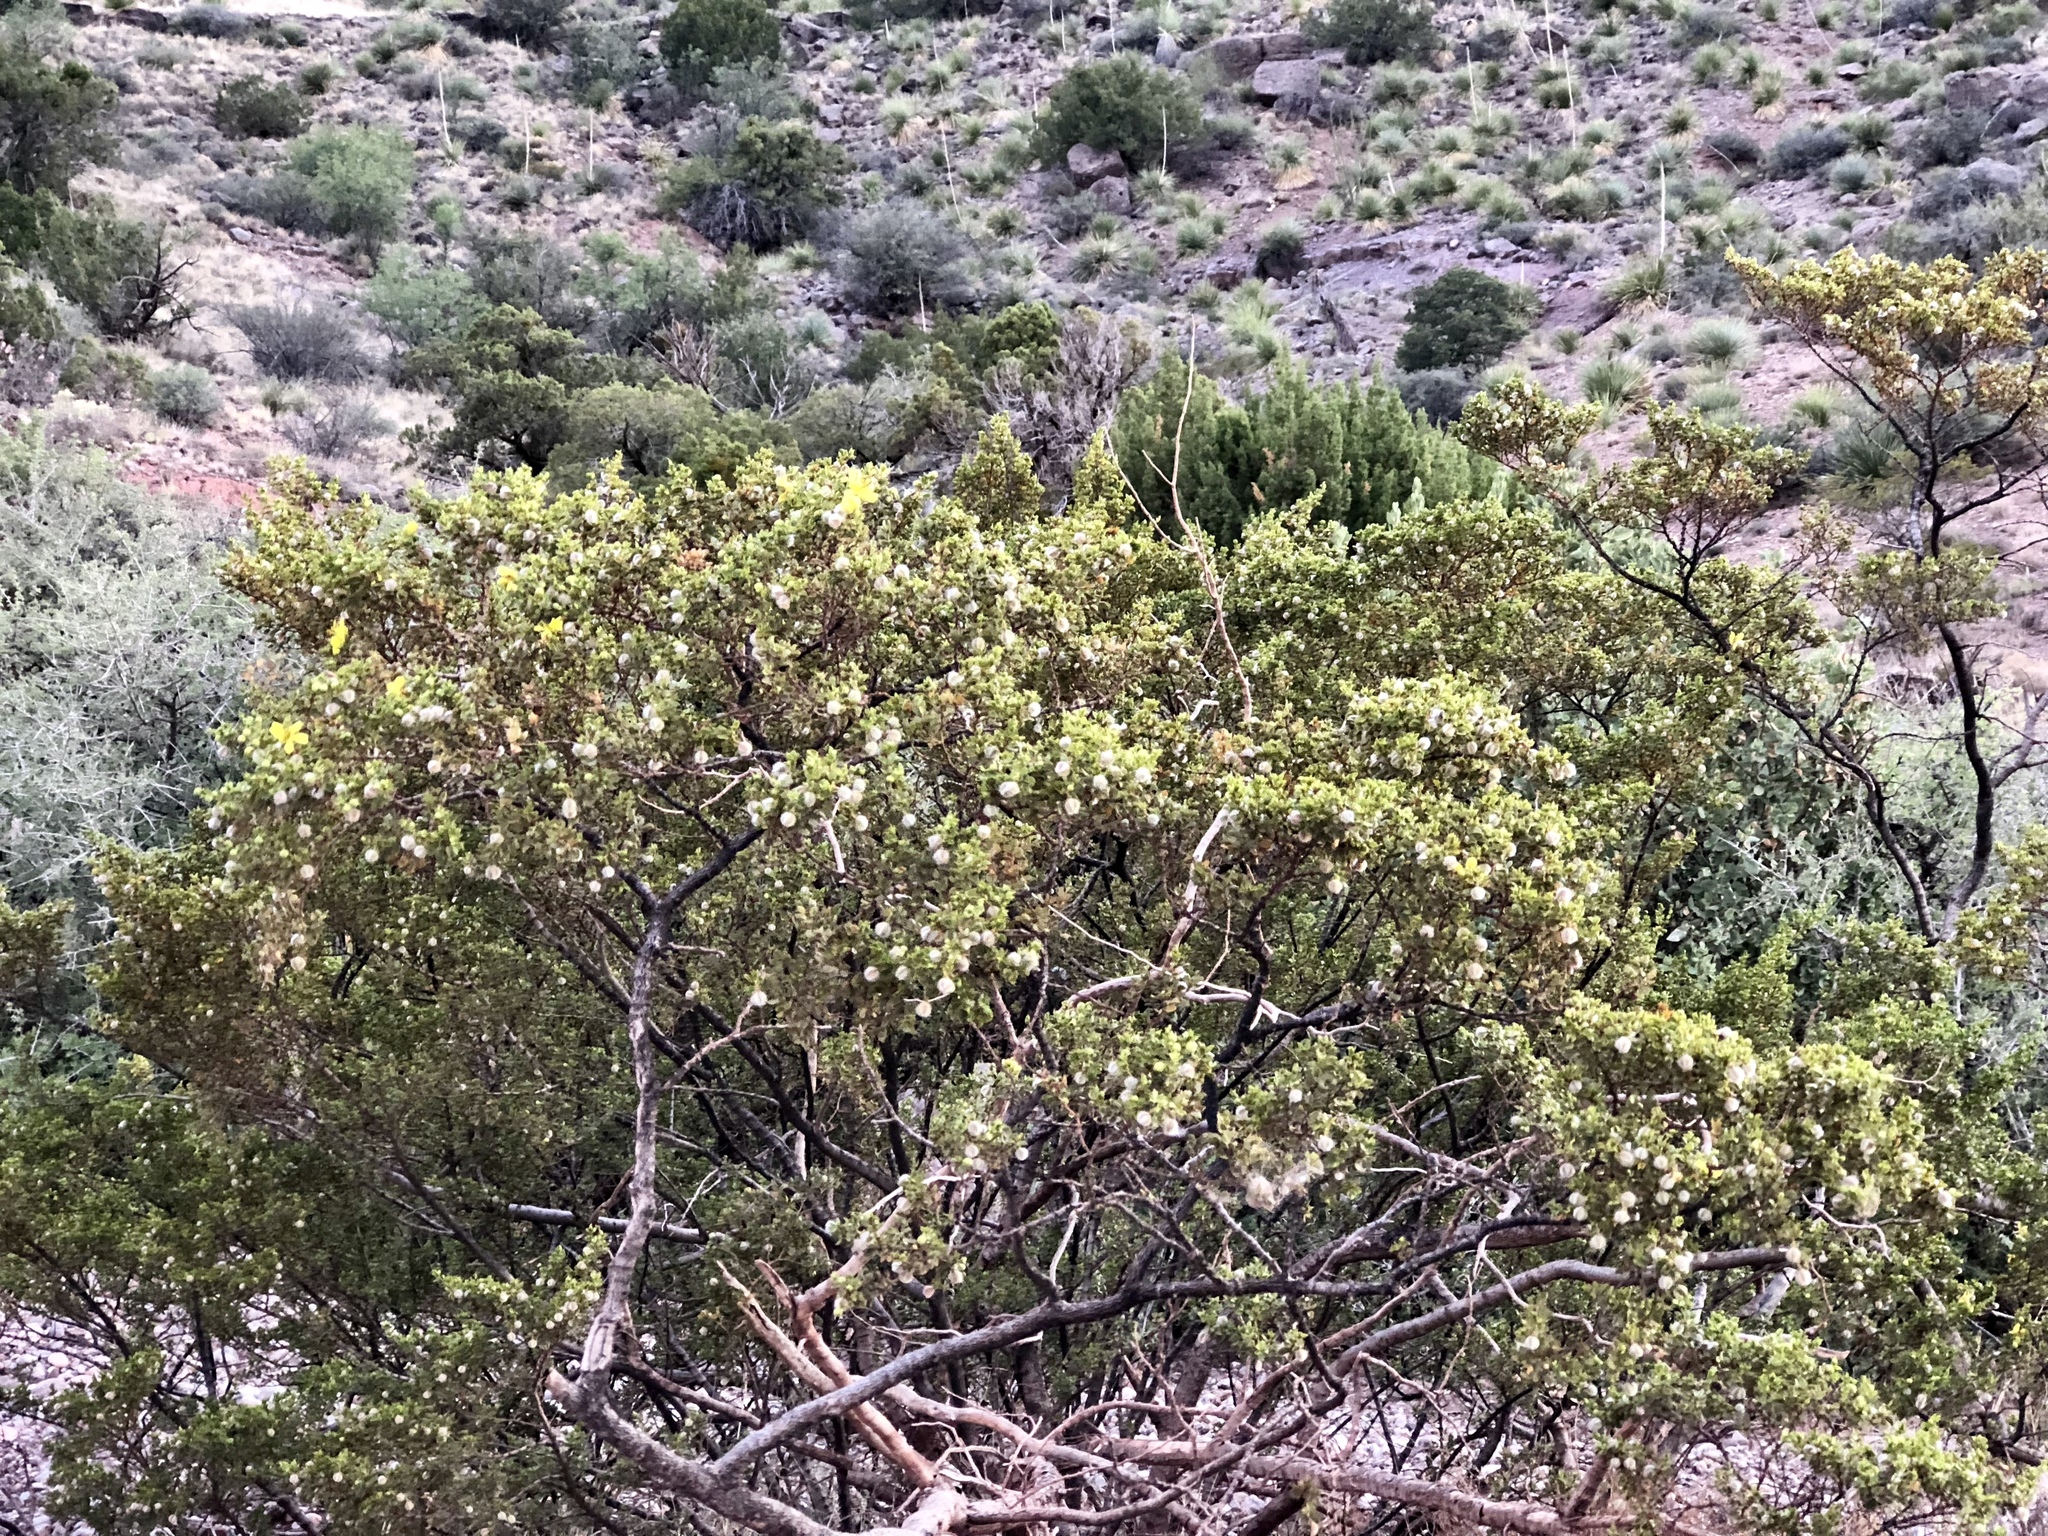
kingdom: Plantae
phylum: Tracheophyta
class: Magnoliopsida
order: Zygophyllales
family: Zygophyllaceae
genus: Larrea
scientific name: Larrea tridentata
